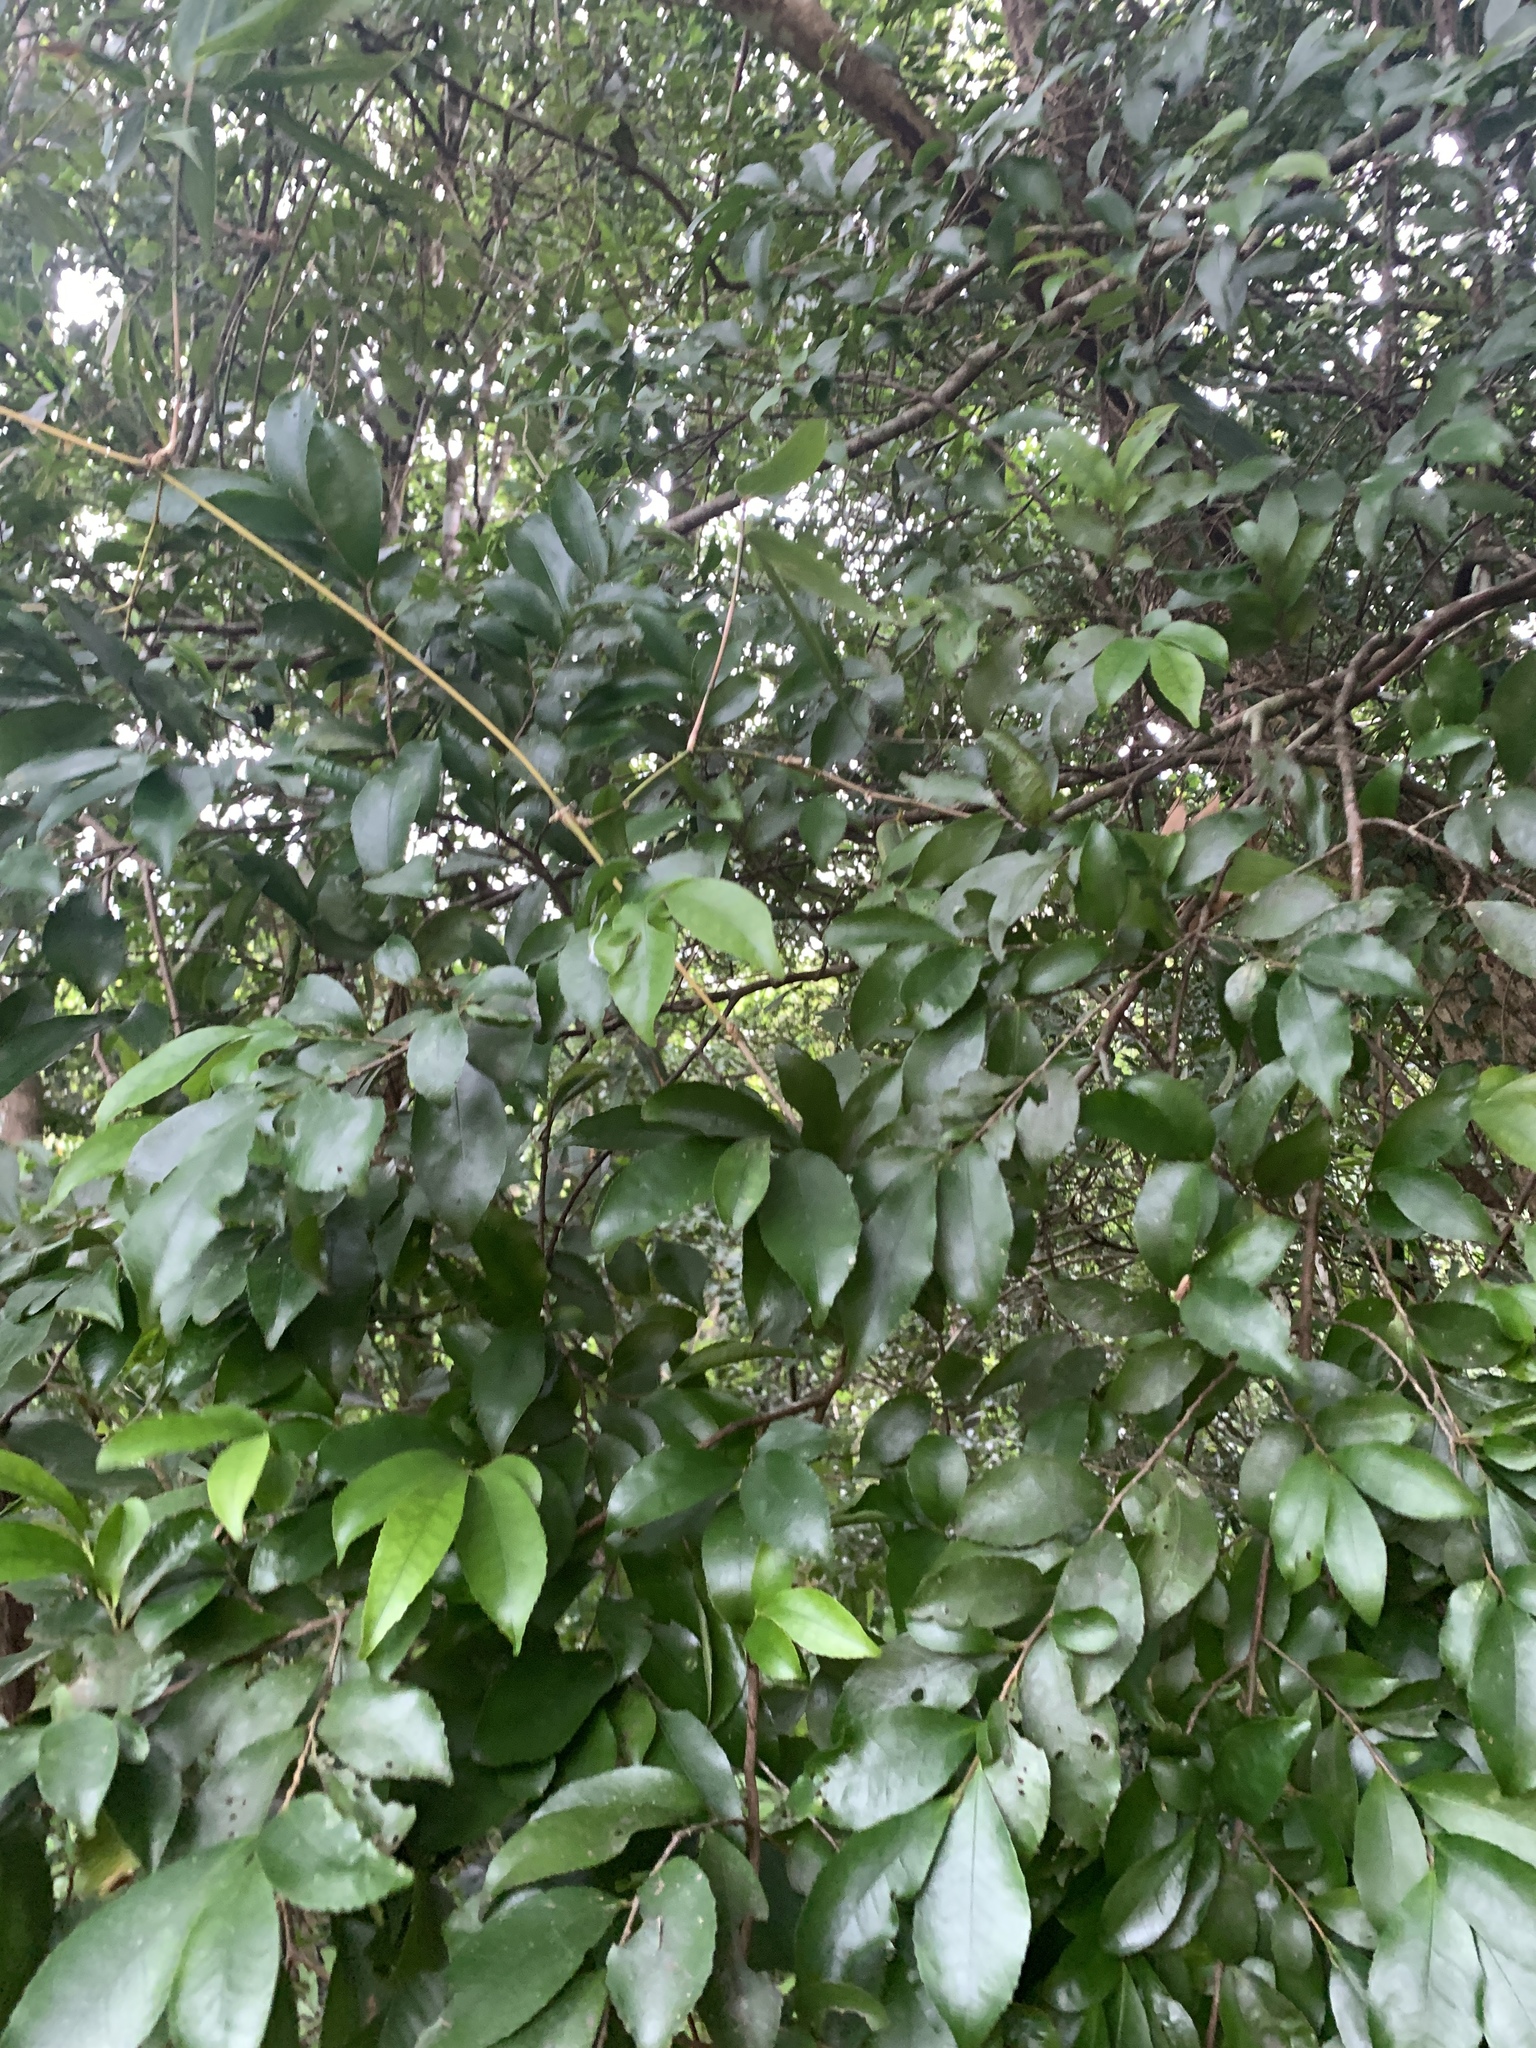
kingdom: Plantae
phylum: Tracheophyta
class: Magnoliopsida
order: Ericales
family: Pentaphylacaceae
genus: Eurya
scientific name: Eurya septata
